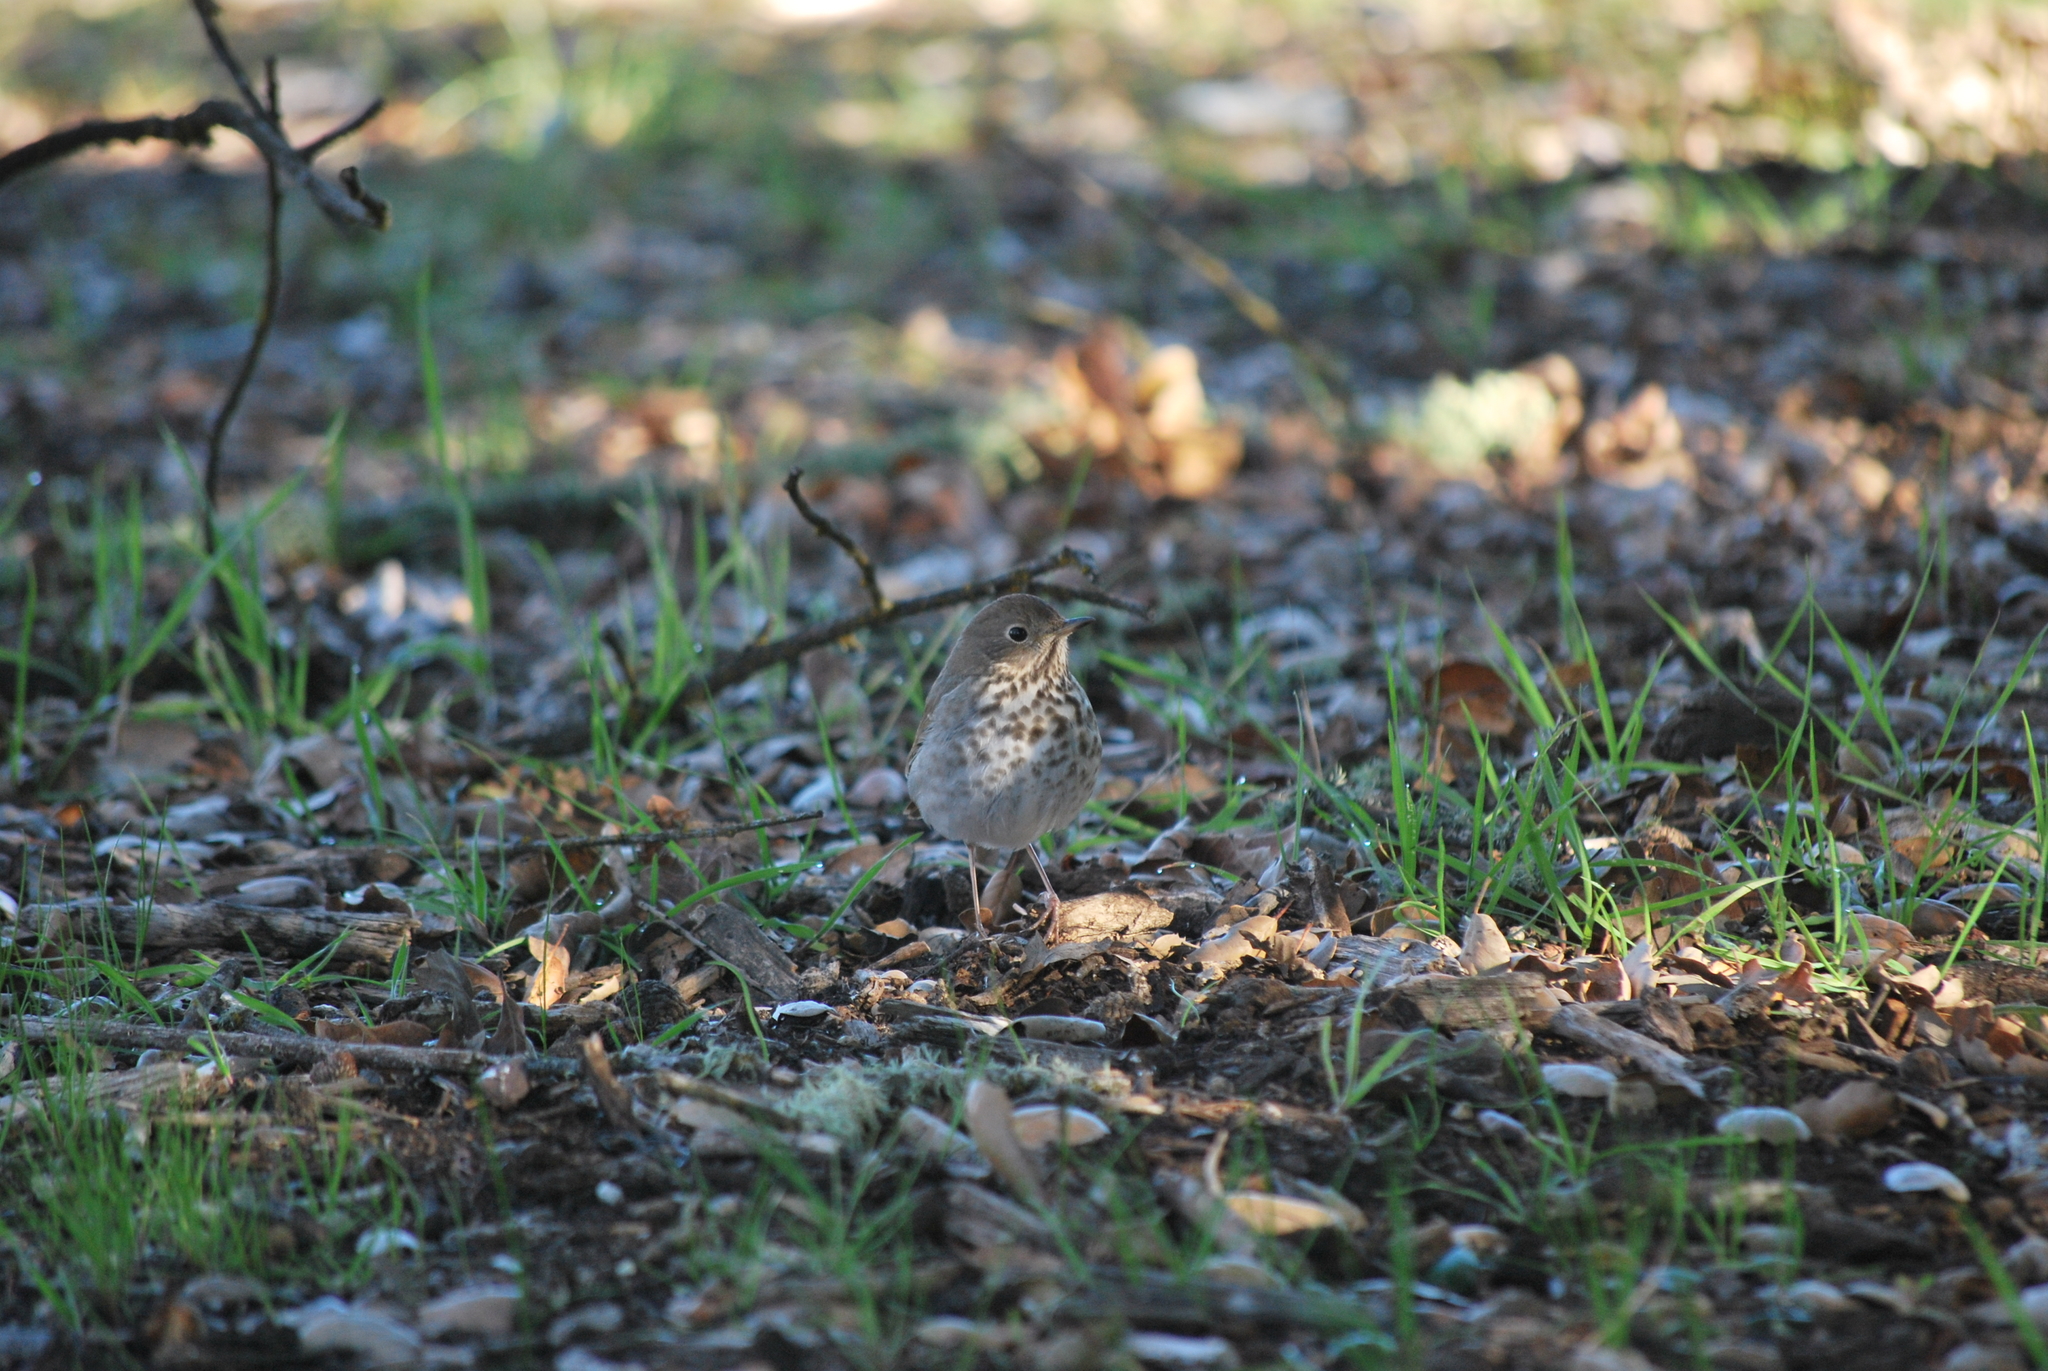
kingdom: Animalia
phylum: Chordata
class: Aves
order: Passeriformes
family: Turdidae
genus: Catharus
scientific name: Catharus guttatus
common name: Hermit thrush
